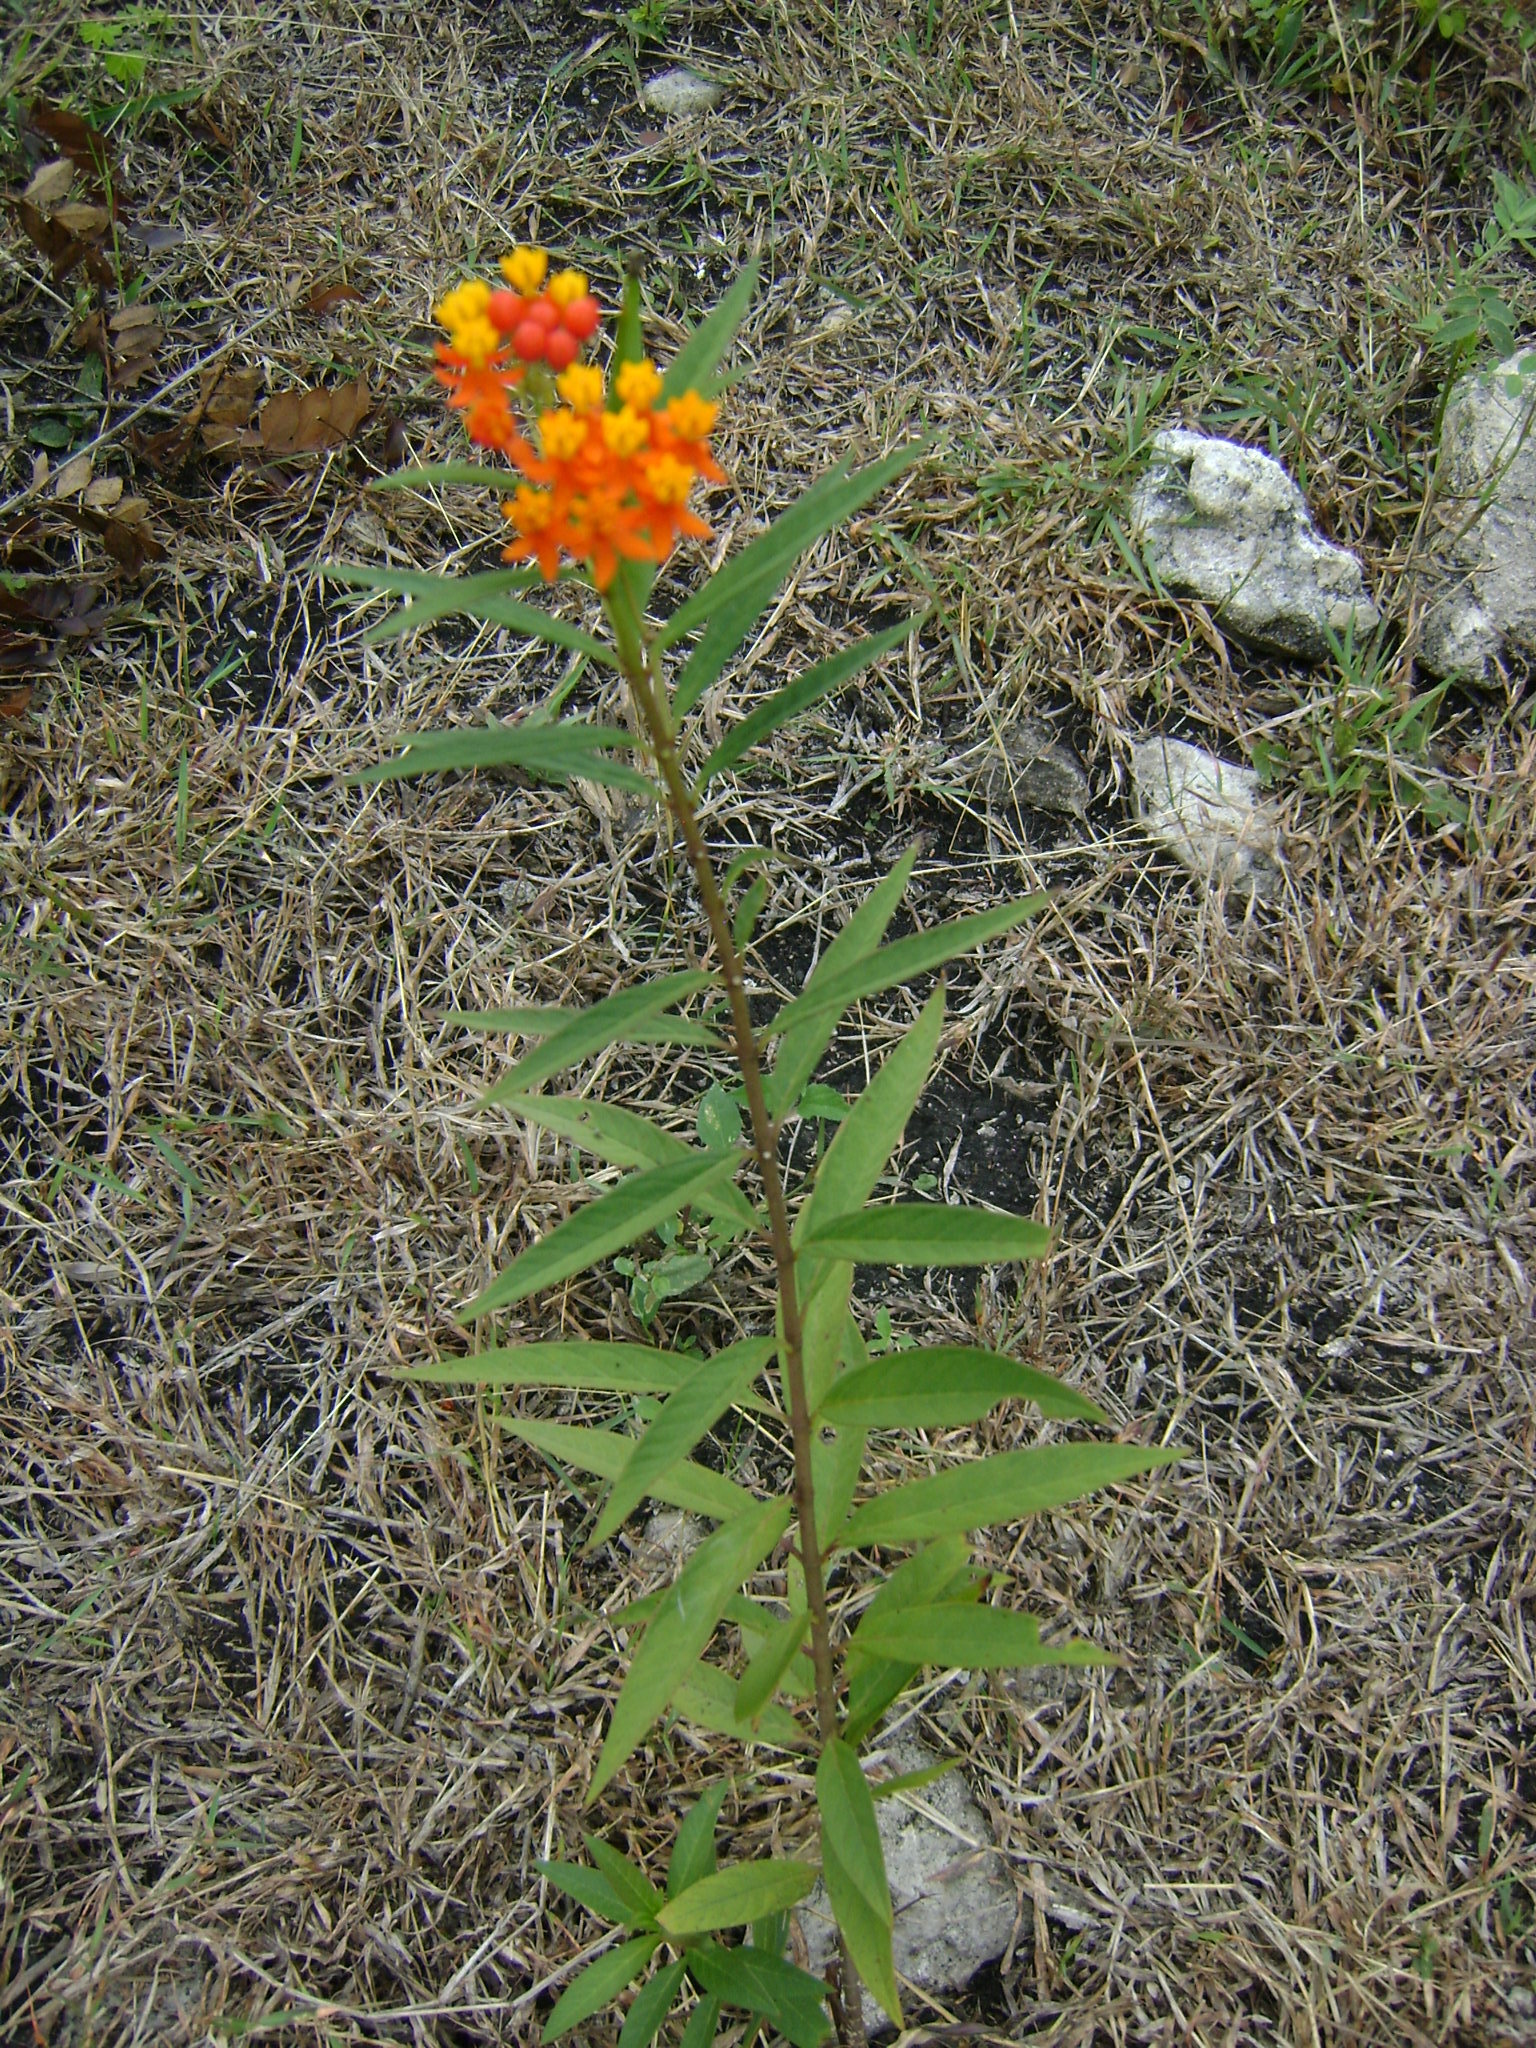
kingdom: Plantae
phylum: Tracheophyta
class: Magnoliopsida
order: Gentianales
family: Apocynaceae
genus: Asclepias
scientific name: Asclepias curassavica
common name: Bloodflower
